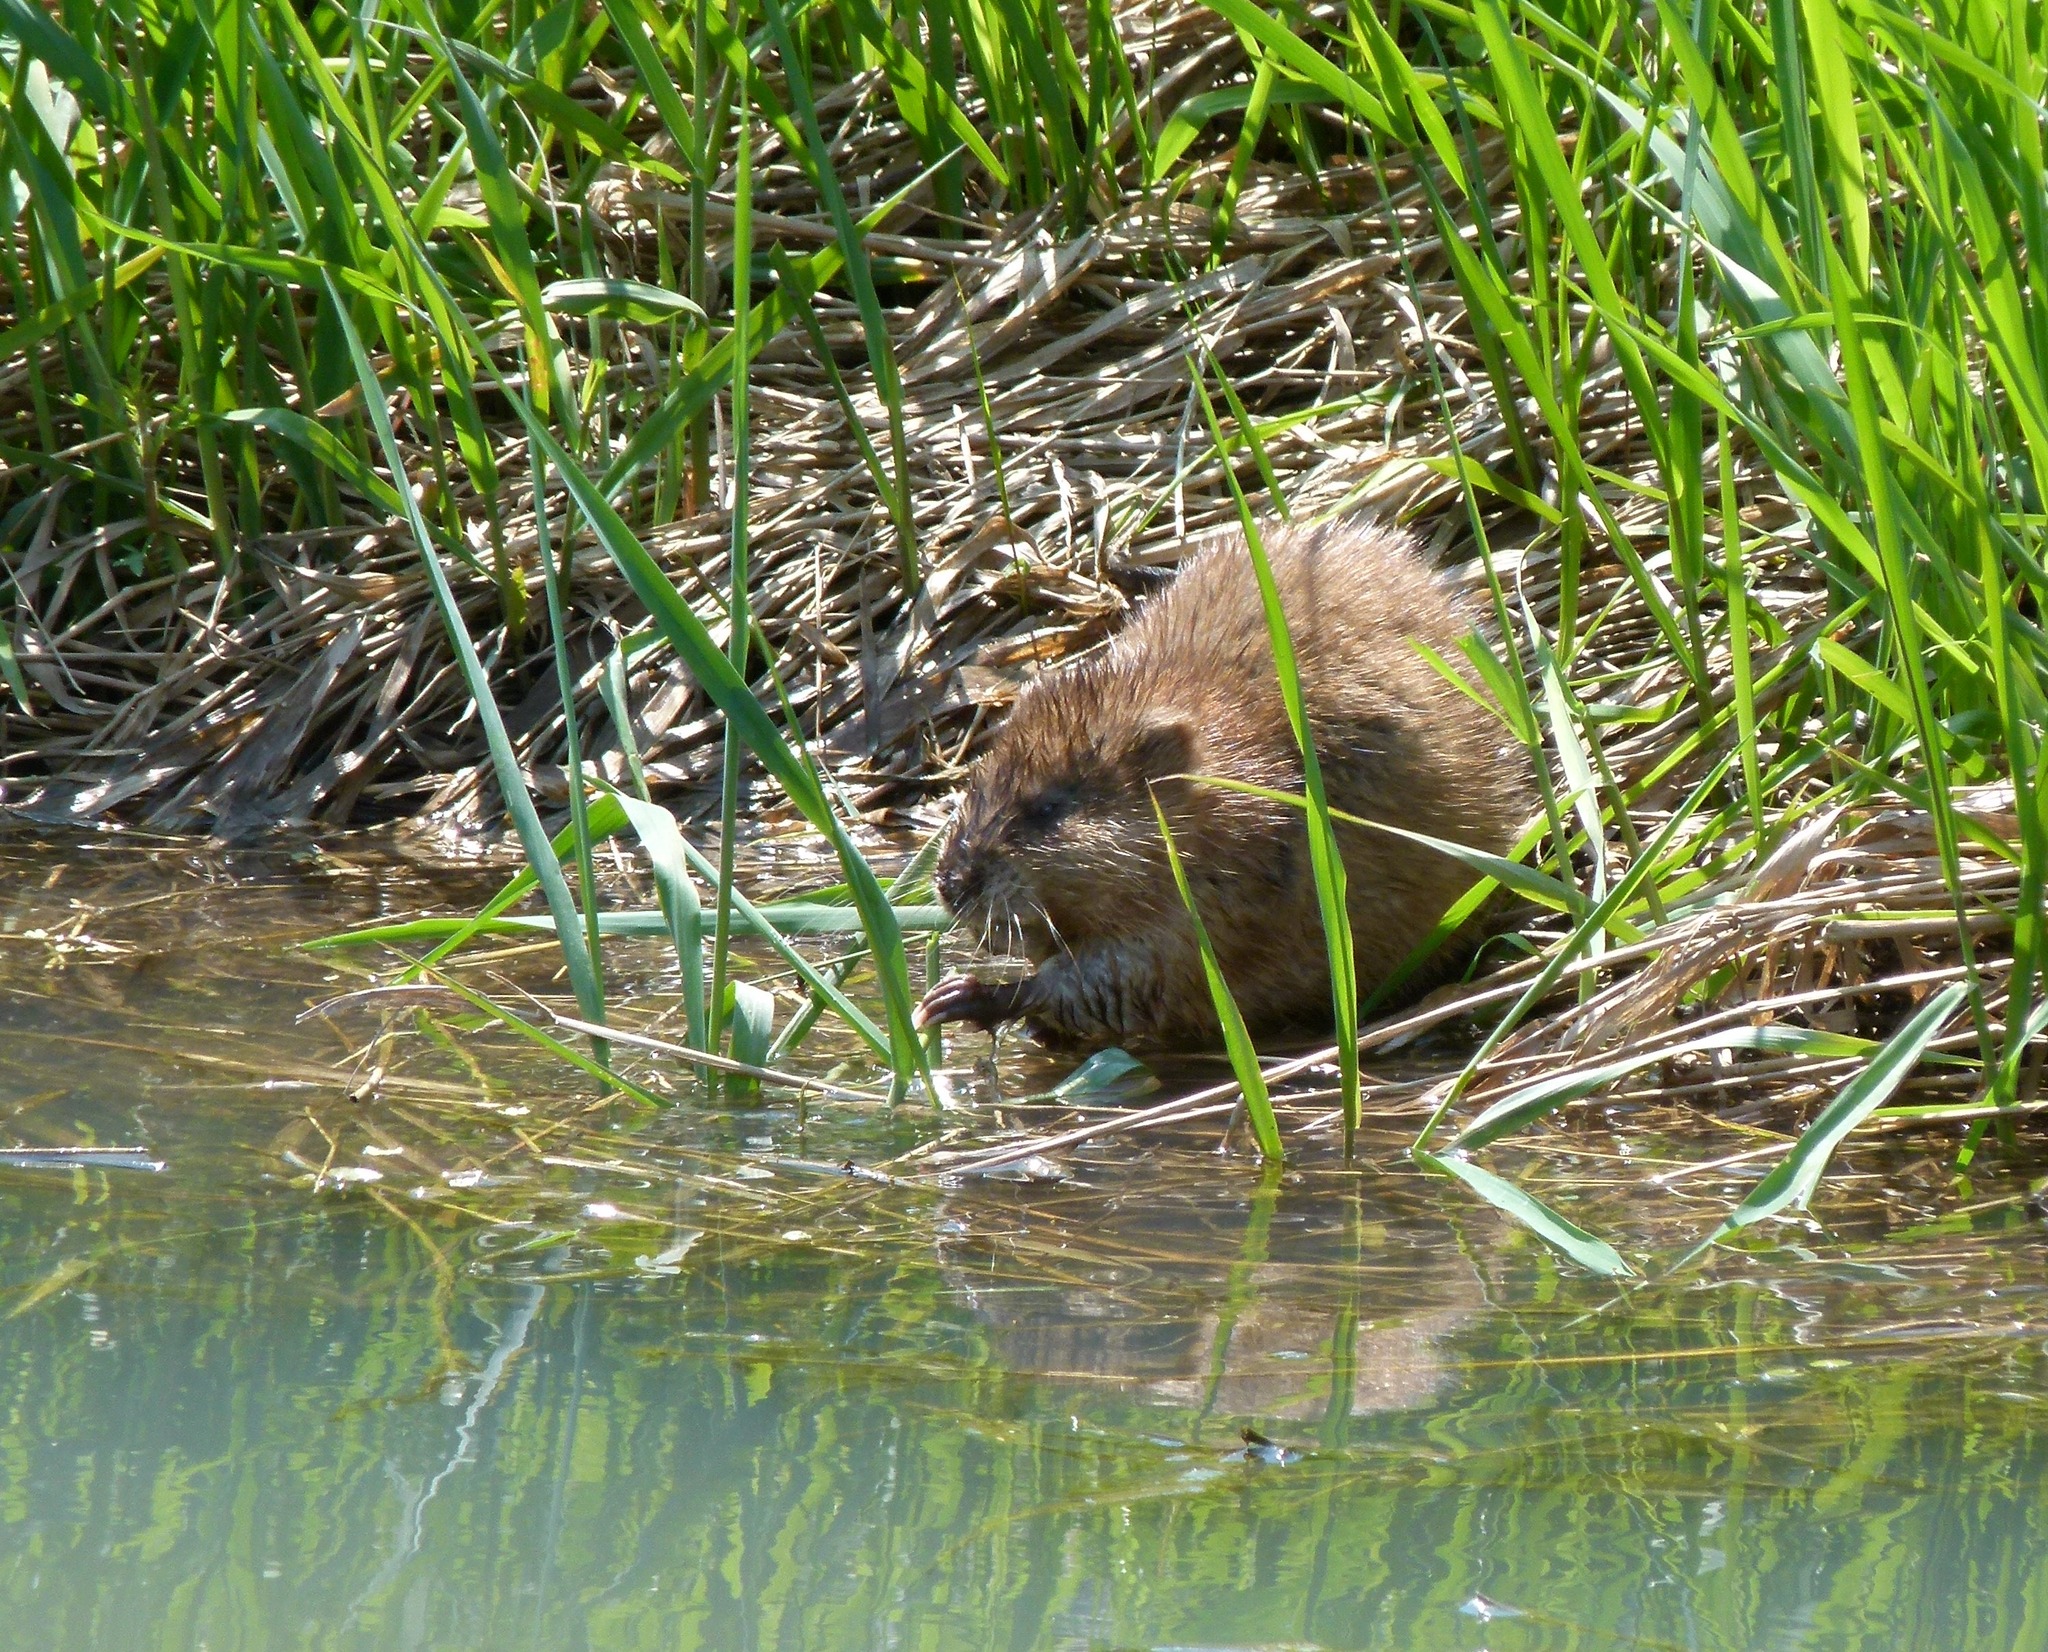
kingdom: Animalia
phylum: Chordata
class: Mammalia
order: Rodentia
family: Cricetidae
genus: Ondatra
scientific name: Ondatra zibethicus
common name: Muskrat
